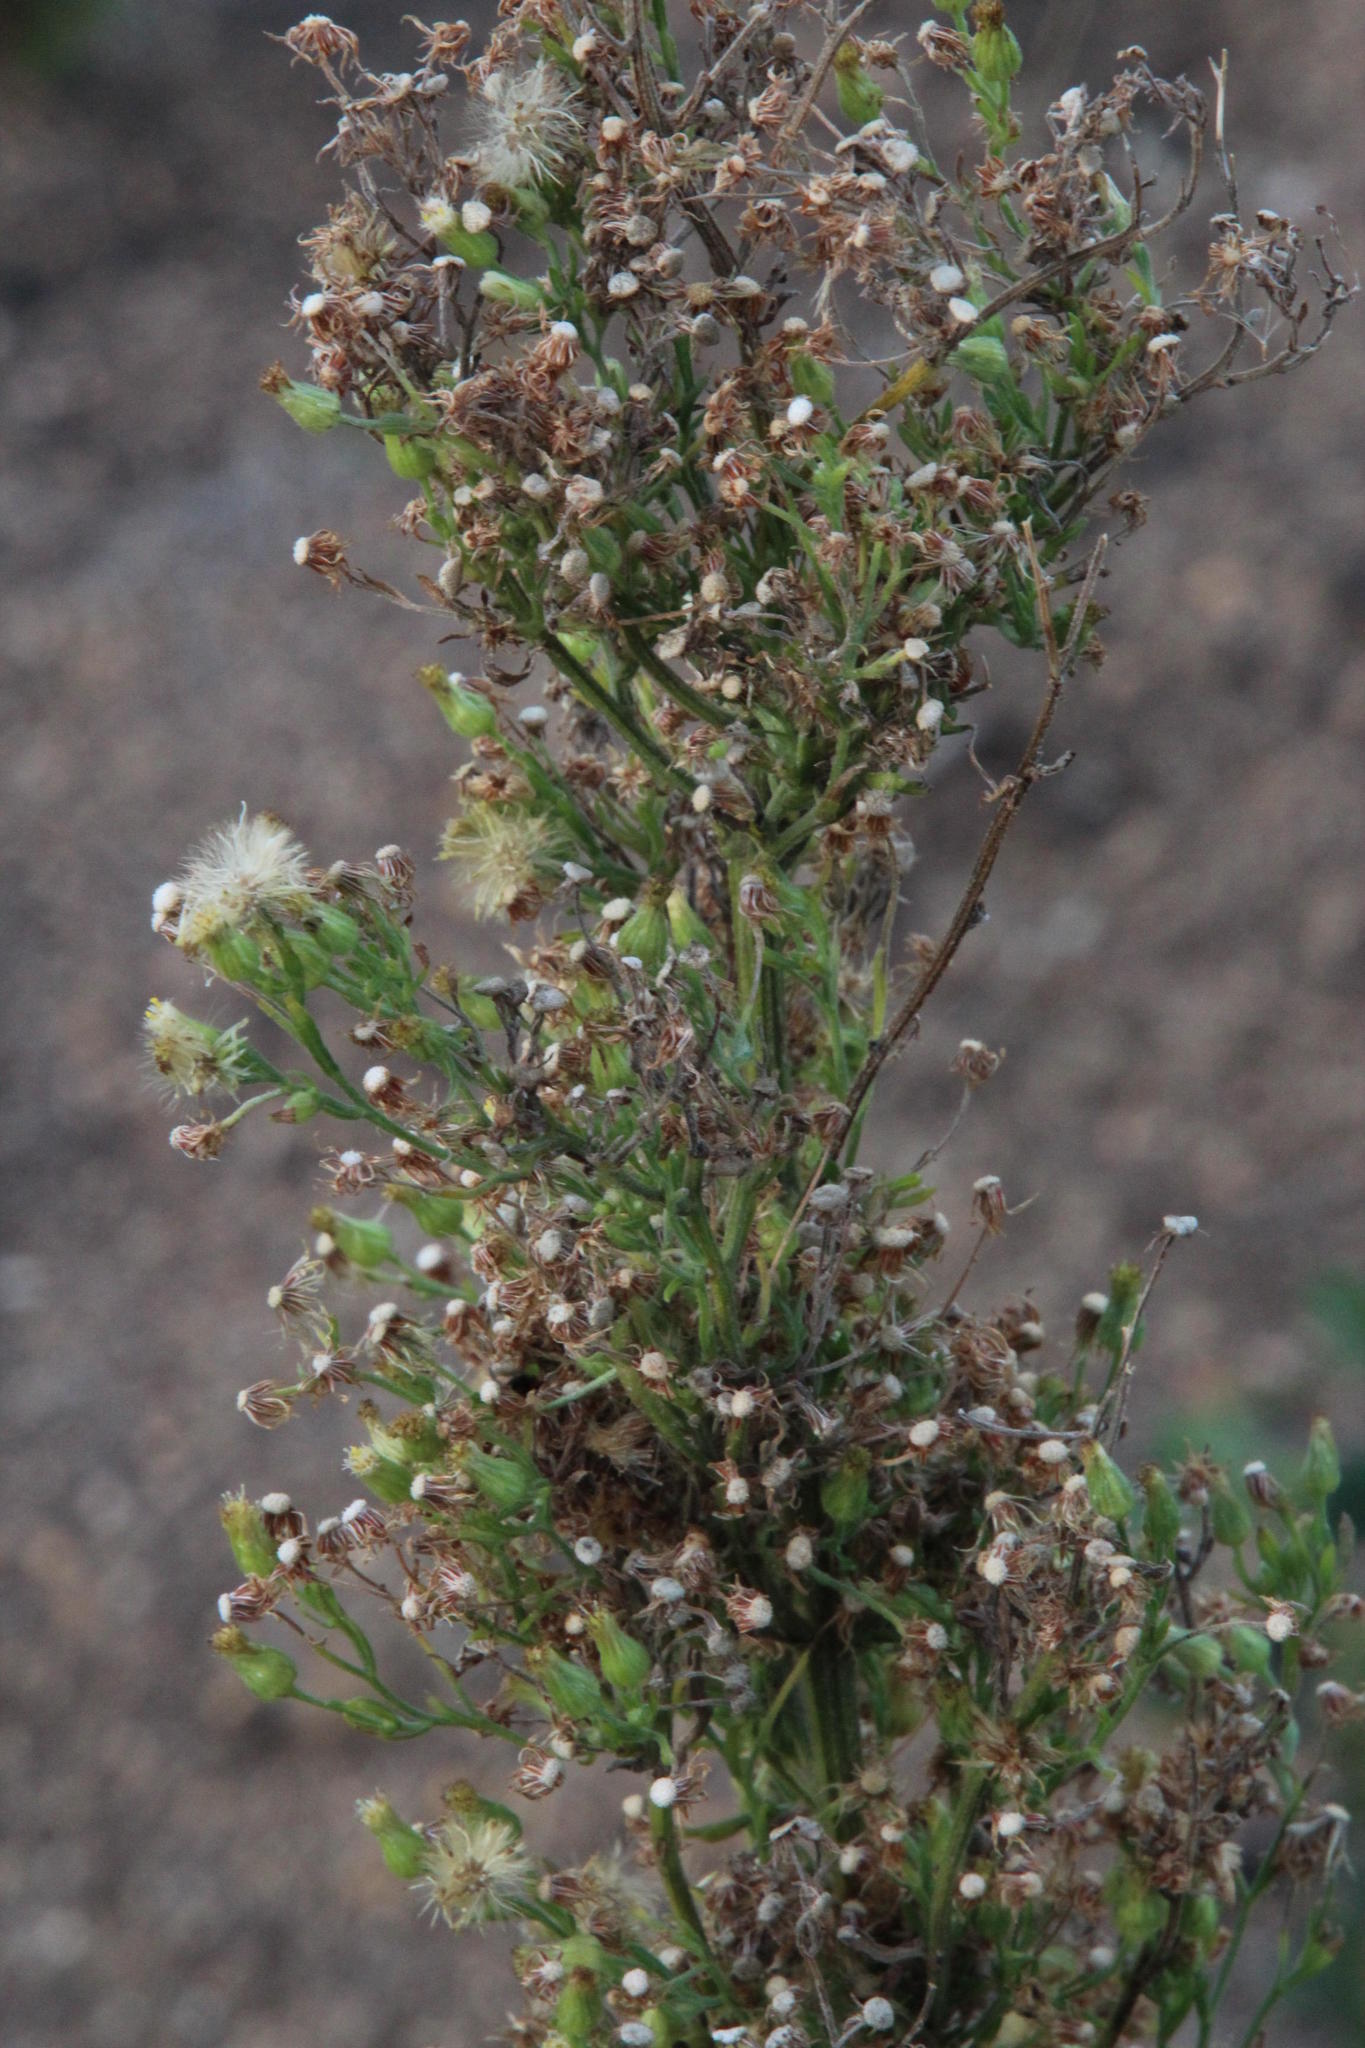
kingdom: Plantae
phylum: Tracheophyta
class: Magnoliopsida
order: Asterales
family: Asteraceae
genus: Erigeron
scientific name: Erigeron bonariensis
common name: Argentine fleabane
